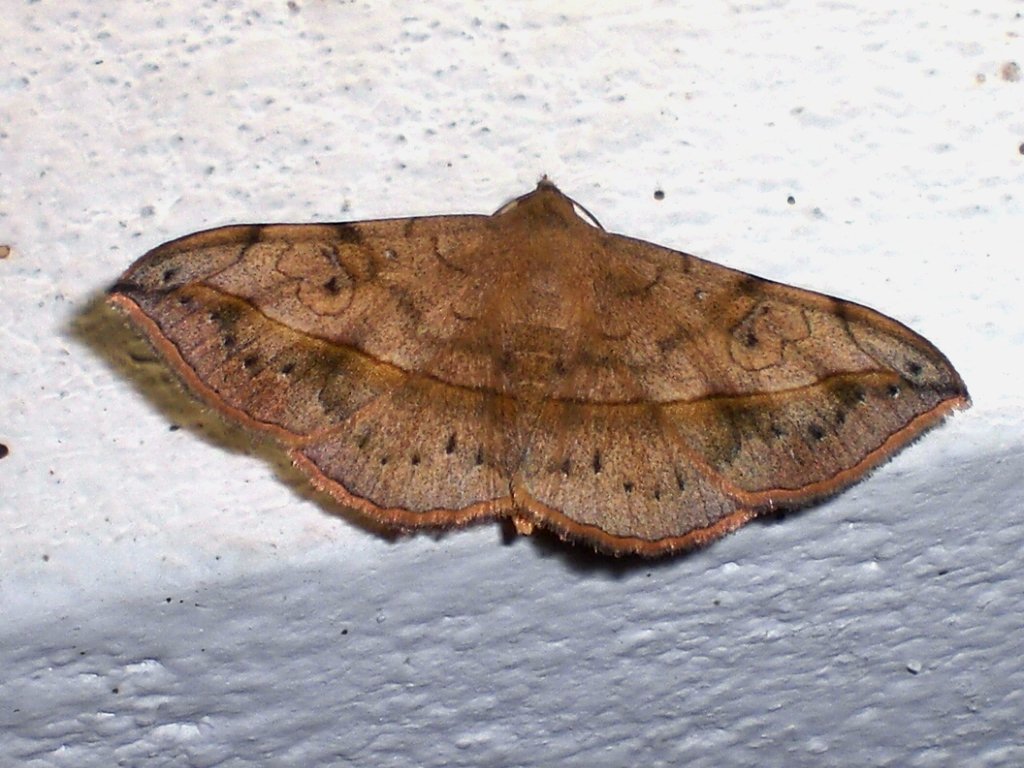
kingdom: Animalia
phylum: Arthropoda
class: Insecta
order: Lepidoptera
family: Erebidae
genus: Anticarsia
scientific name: Anticarsia irrorata
